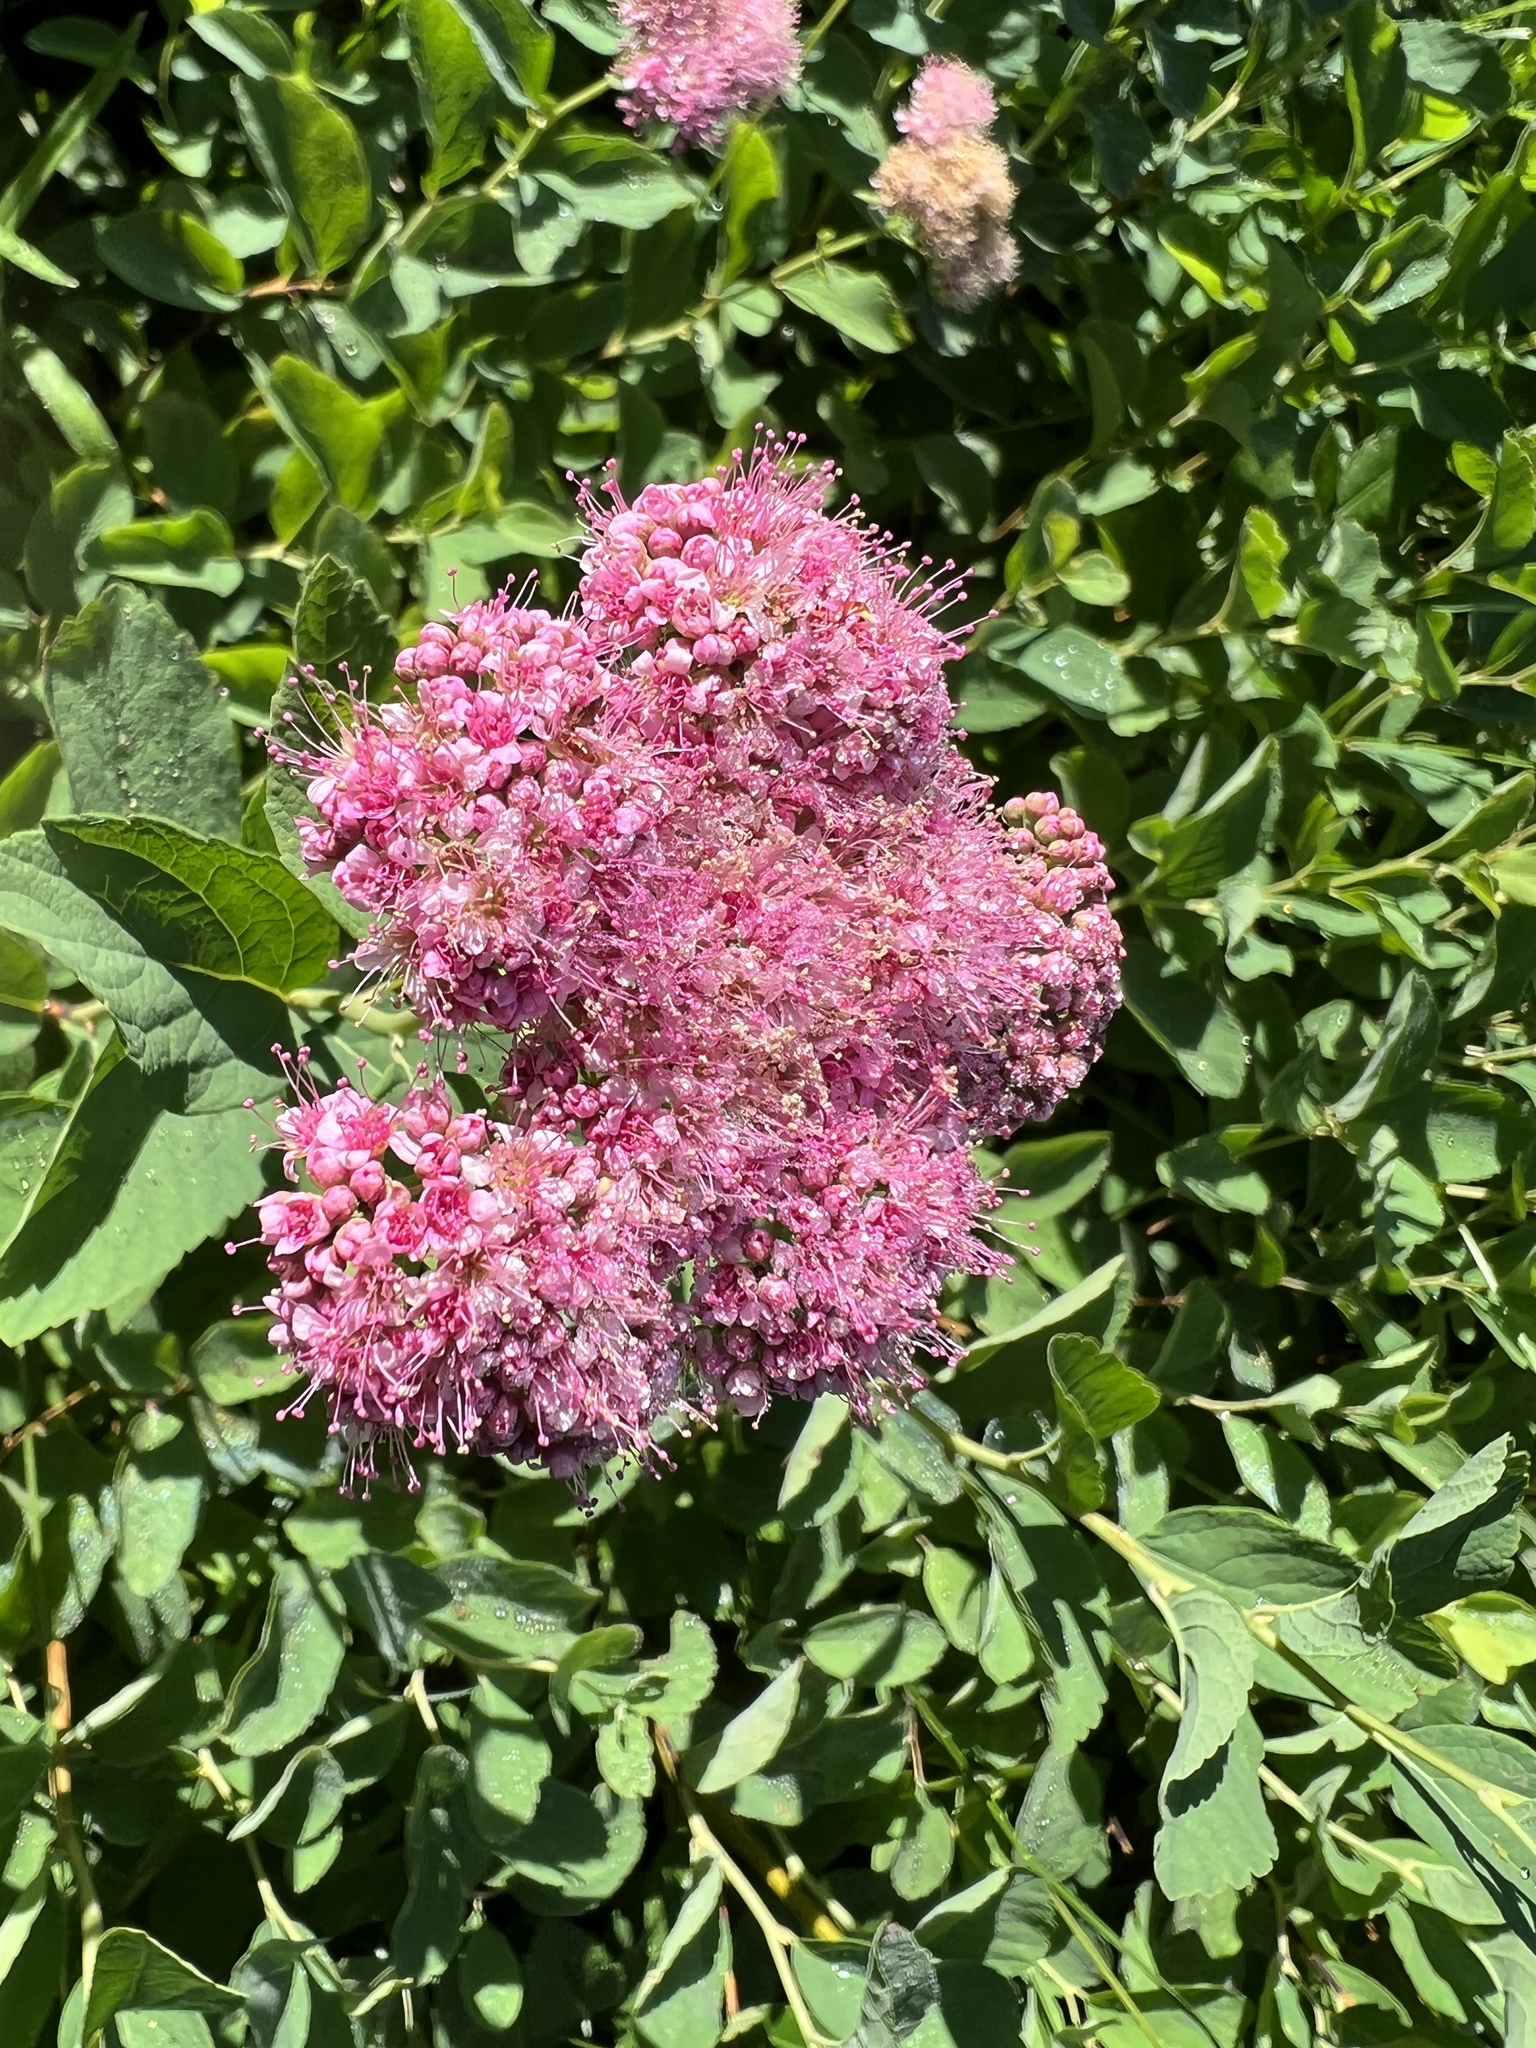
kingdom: Plantae
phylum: Tracheophyta
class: Magnoliopsida
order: Rosales
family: Rosaceae
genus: Spiraea
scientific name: Spiraea splendens
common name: Subalpine meadowsweet
